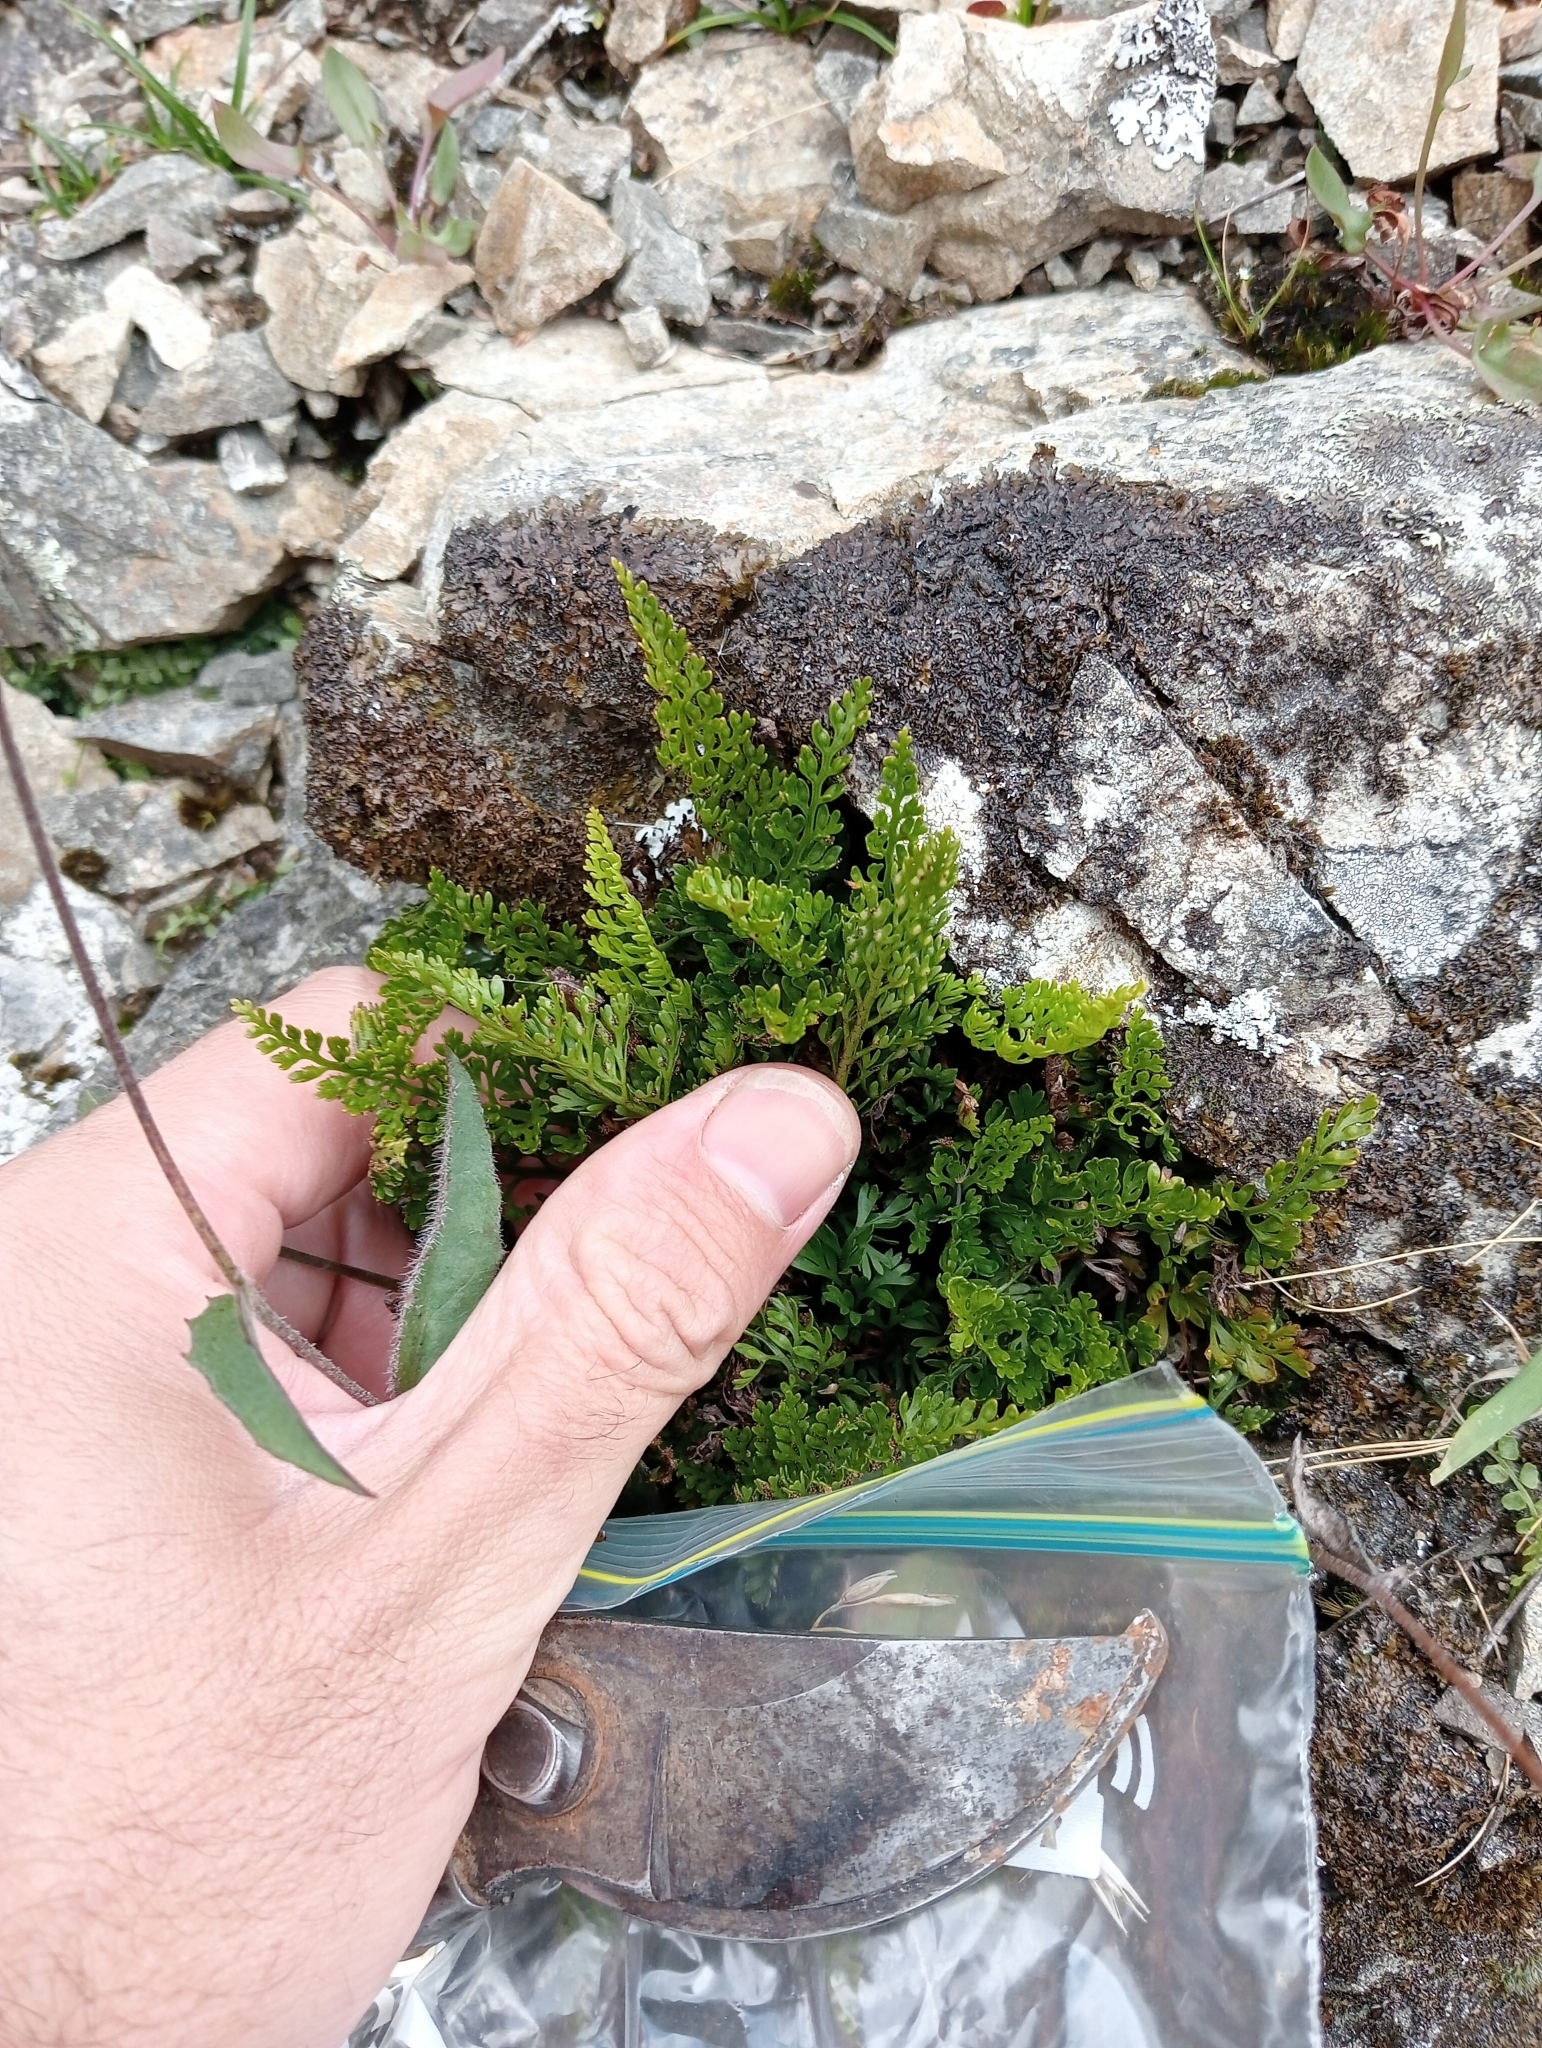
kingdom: Plantae
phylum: Tracheophyta
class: Polypodiopsida
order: Polypodiales
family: Aspleniaceae
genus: Asplenium
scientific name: Asplenium appendiculatum
